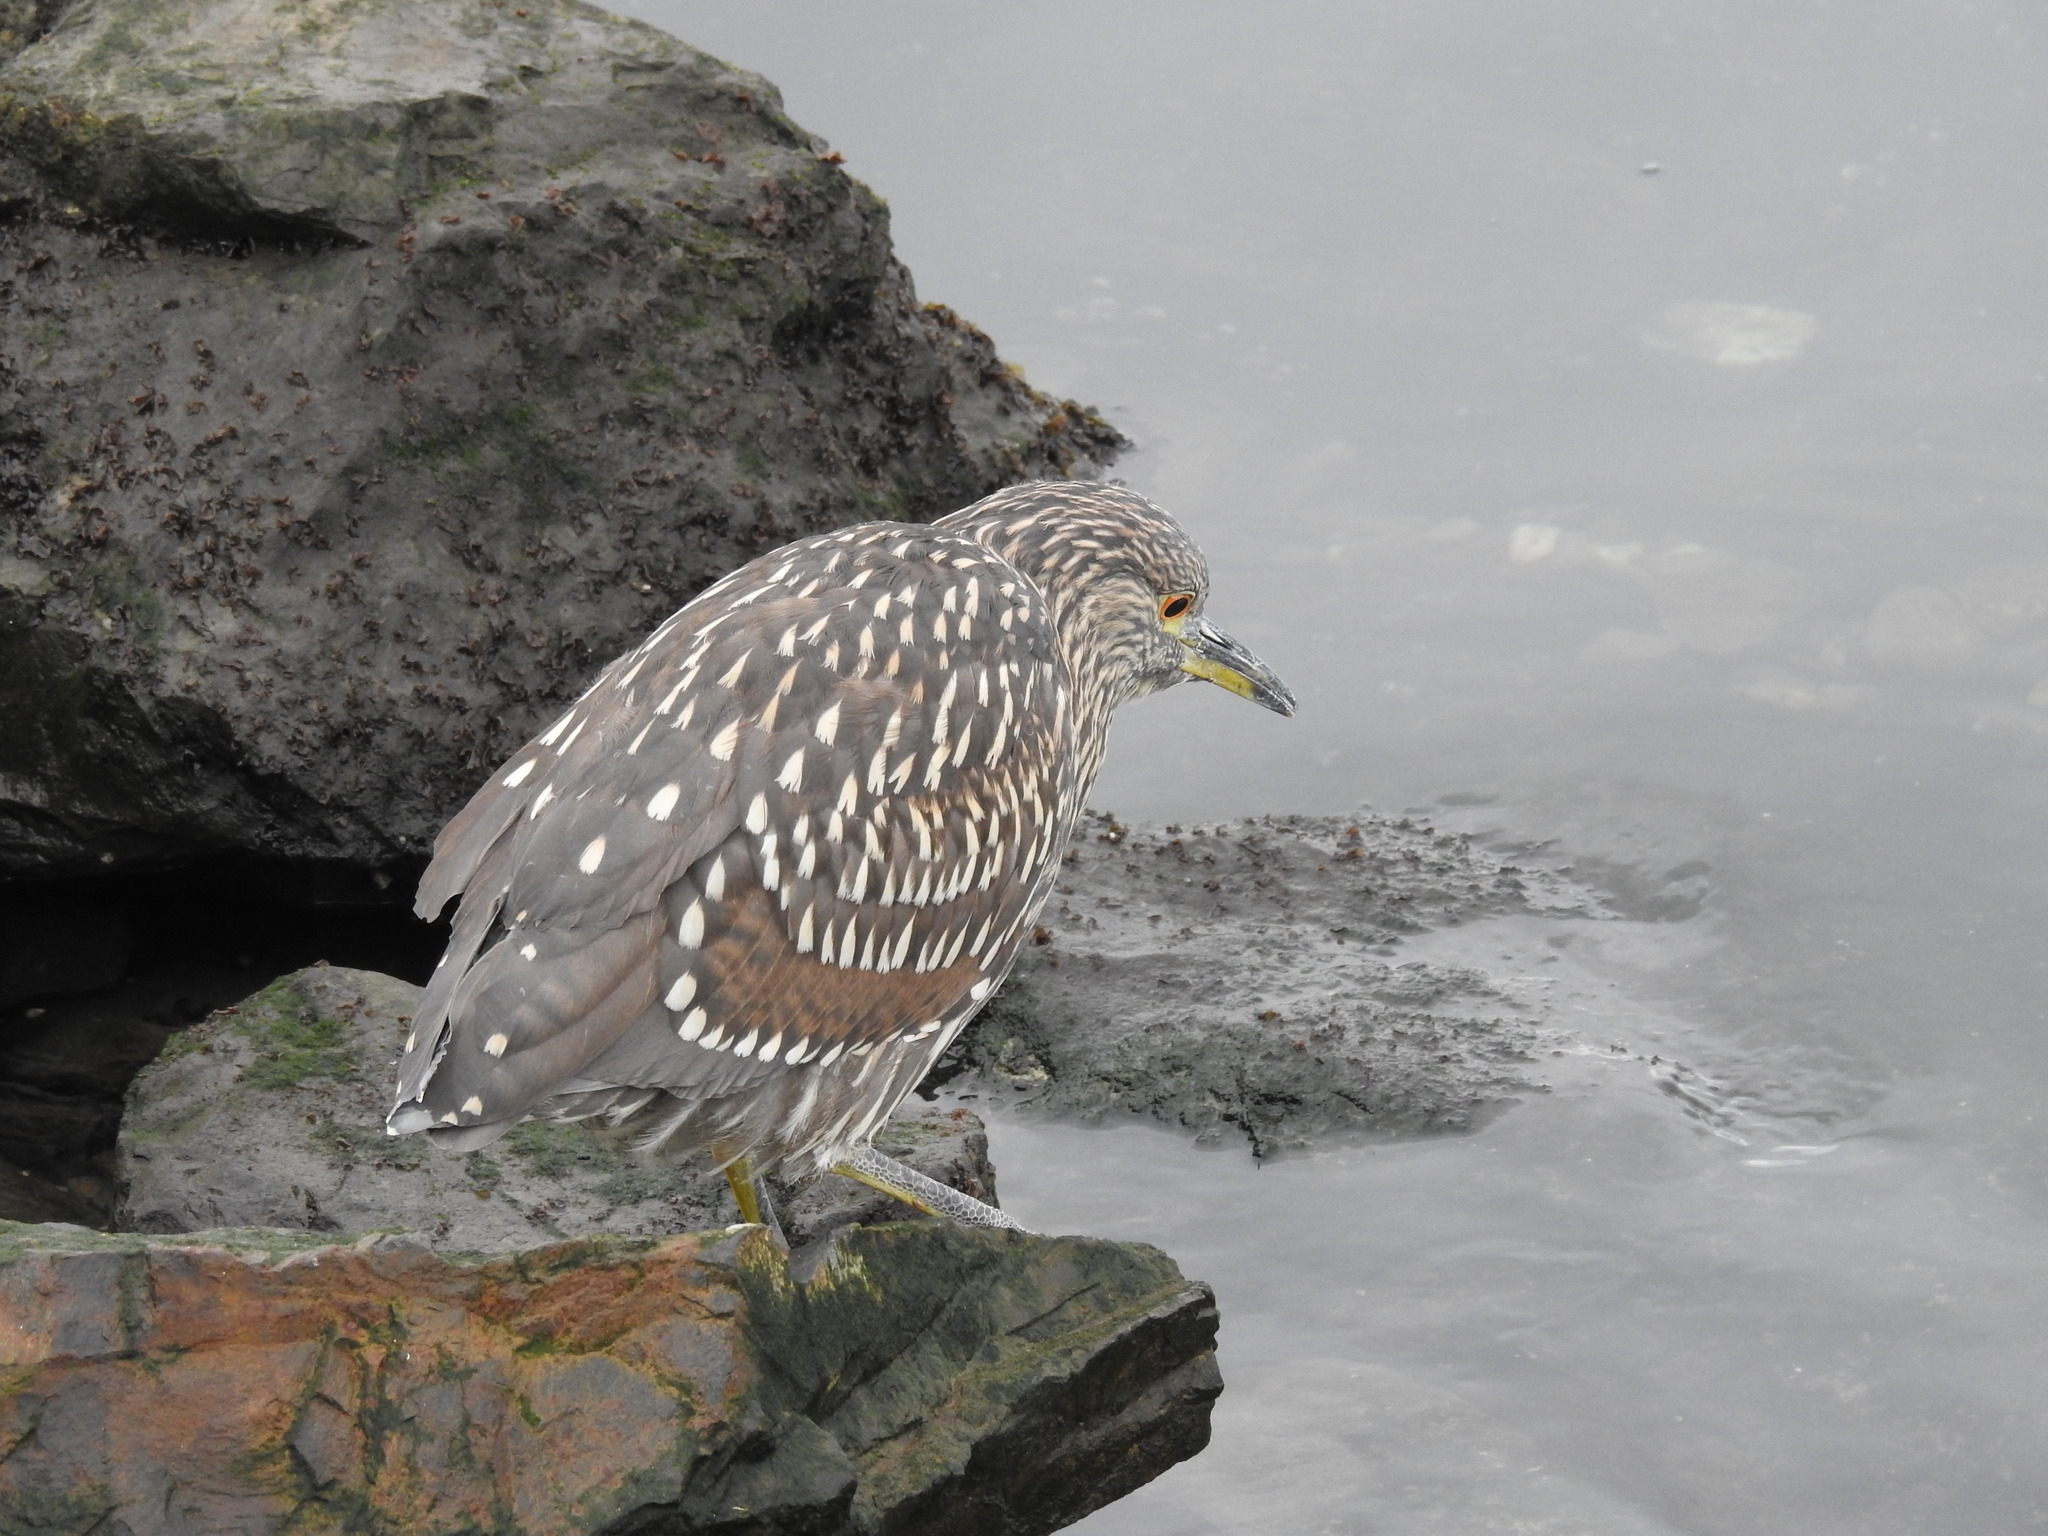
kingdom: Animalia
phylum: Chordata
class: Aves
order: Pelecaniformes
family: Ardeidae
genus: Nycticorax
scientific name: Nycticorax nycticorax
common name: Black-crowned night heron
